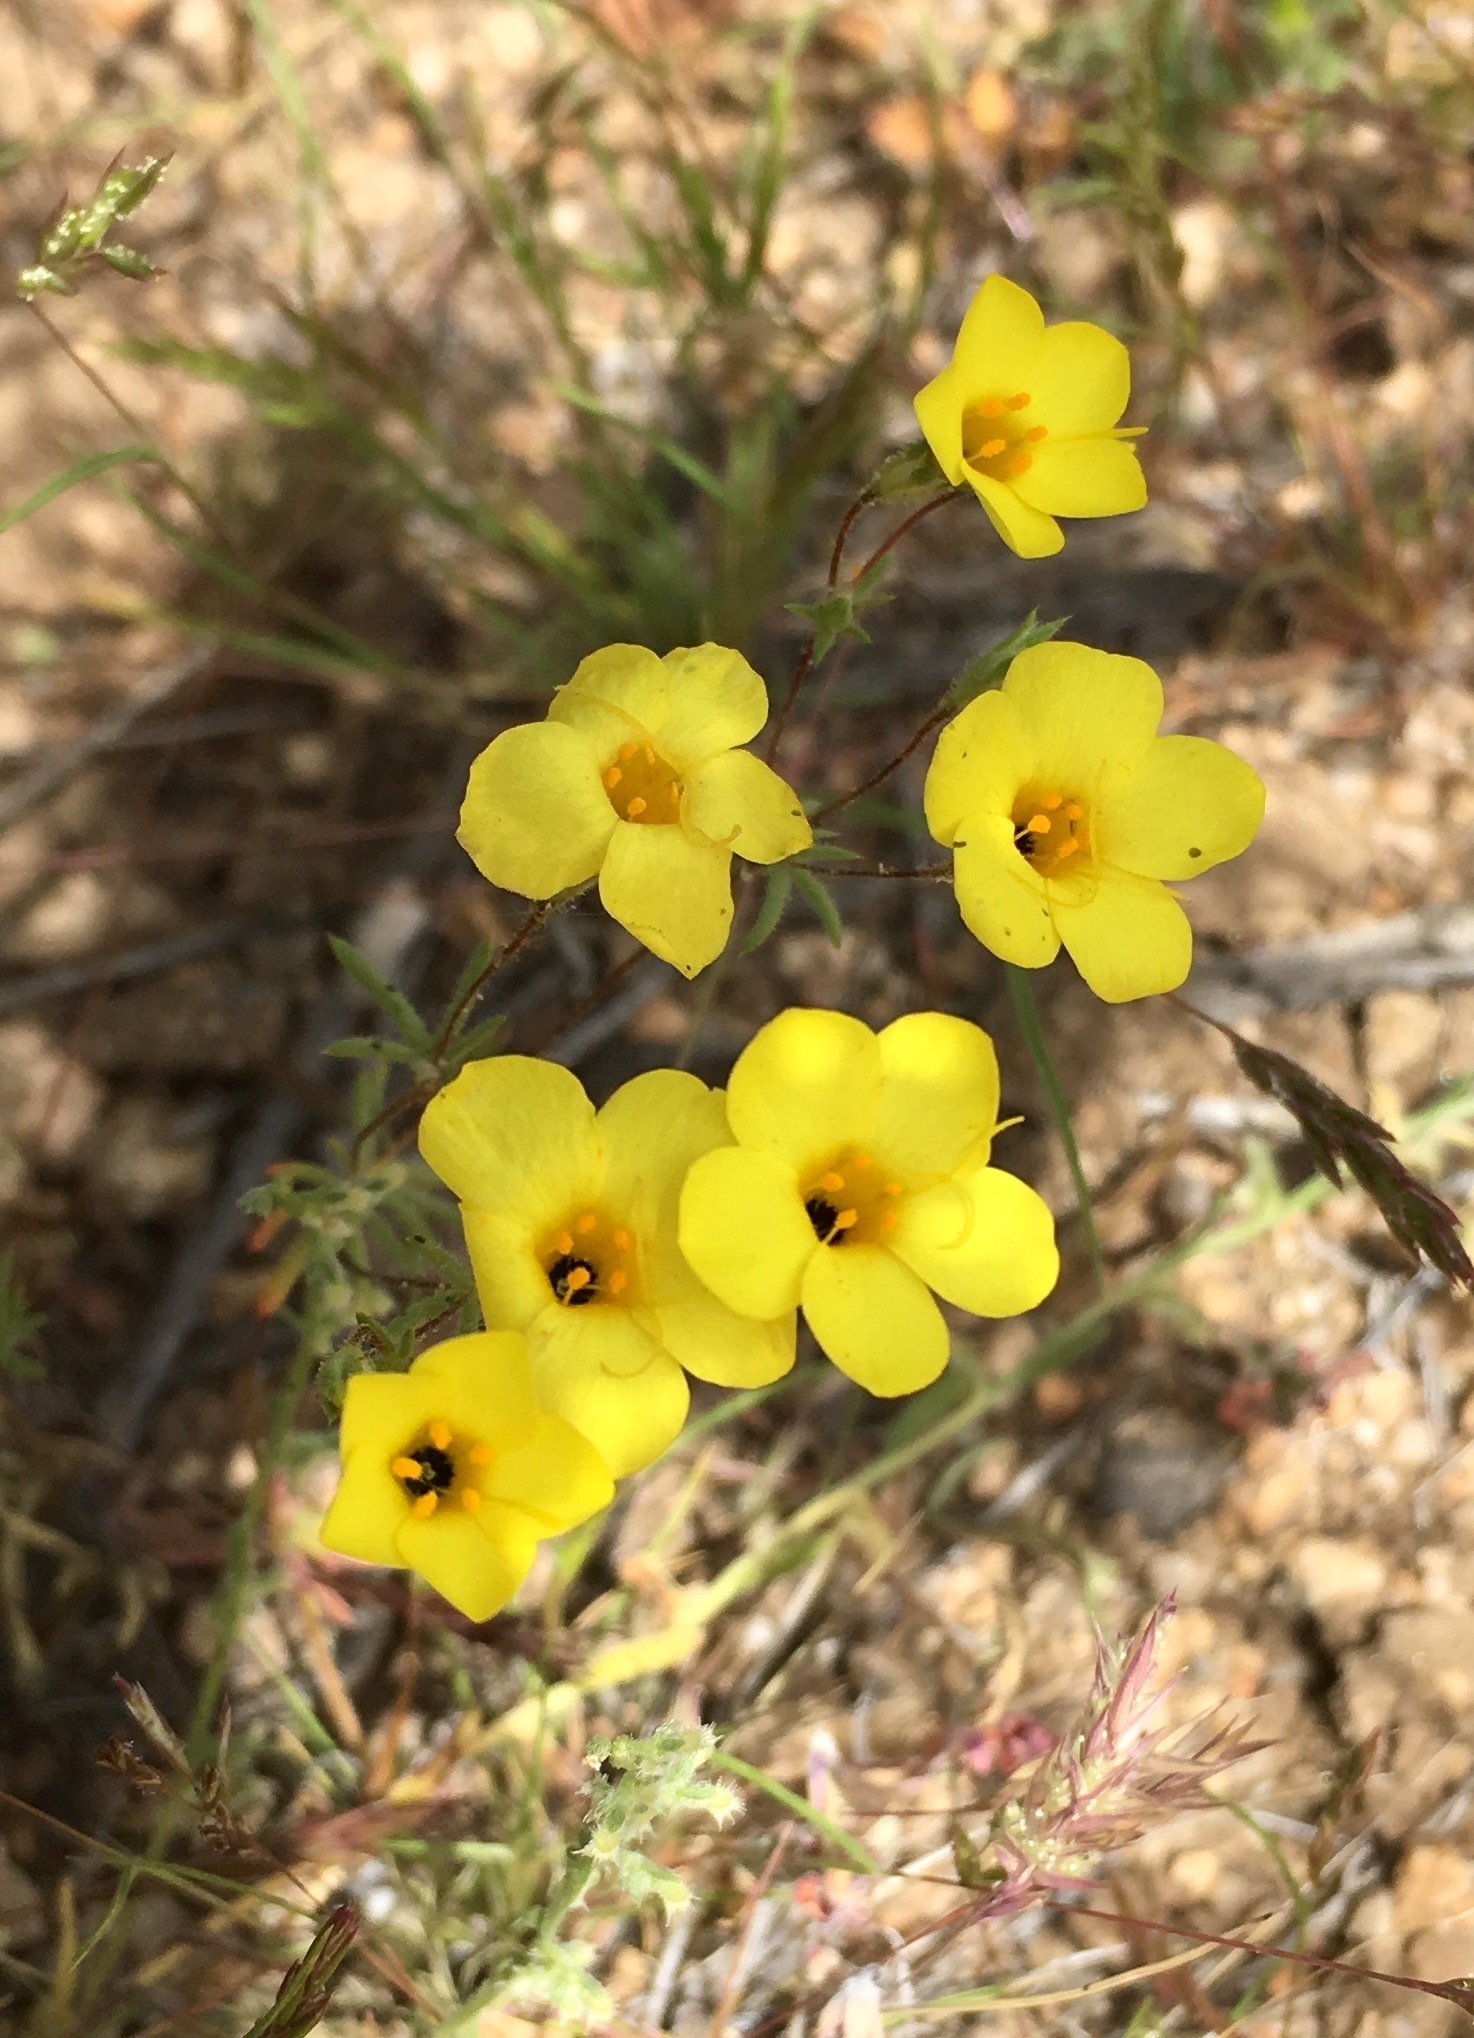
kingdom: Plantae
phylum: Tracheophyta
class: Magnoliopsida
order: Ericales
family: Polemoniaceae
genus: Leptosiphon
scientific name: Leptosiphon chrysanthus
